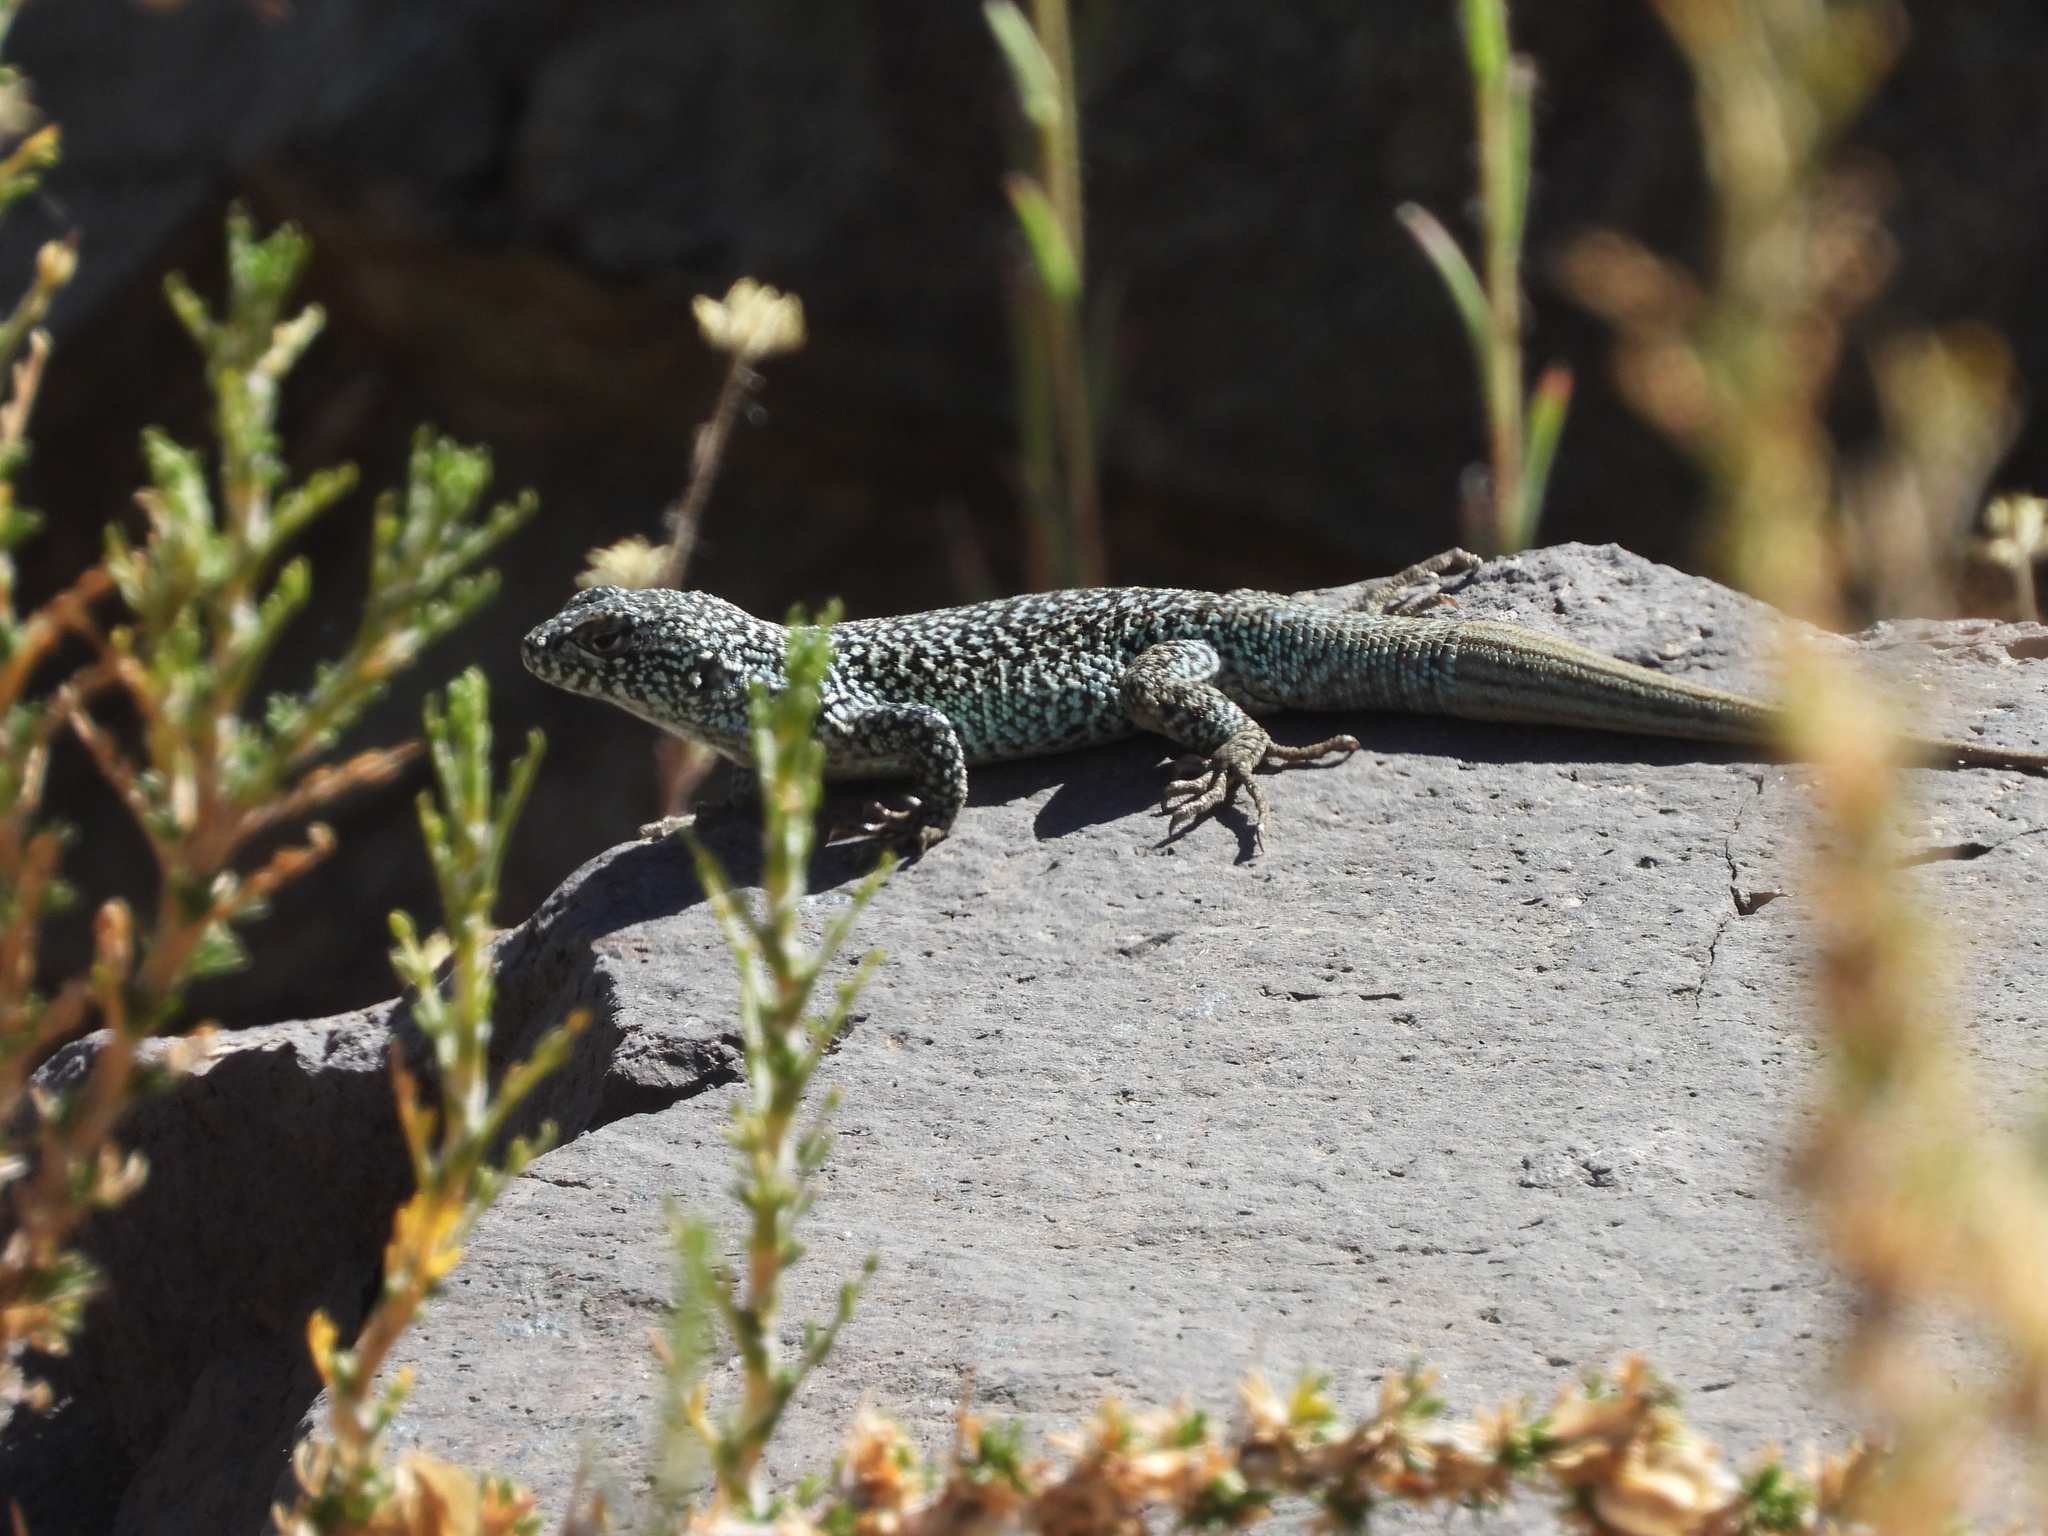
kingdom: Animalia
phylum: Chordata
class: Squamata
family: Liolaemidae
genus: Liolaemus
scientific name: Liolaemus nigroviridis
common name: Black-green tree iguana
